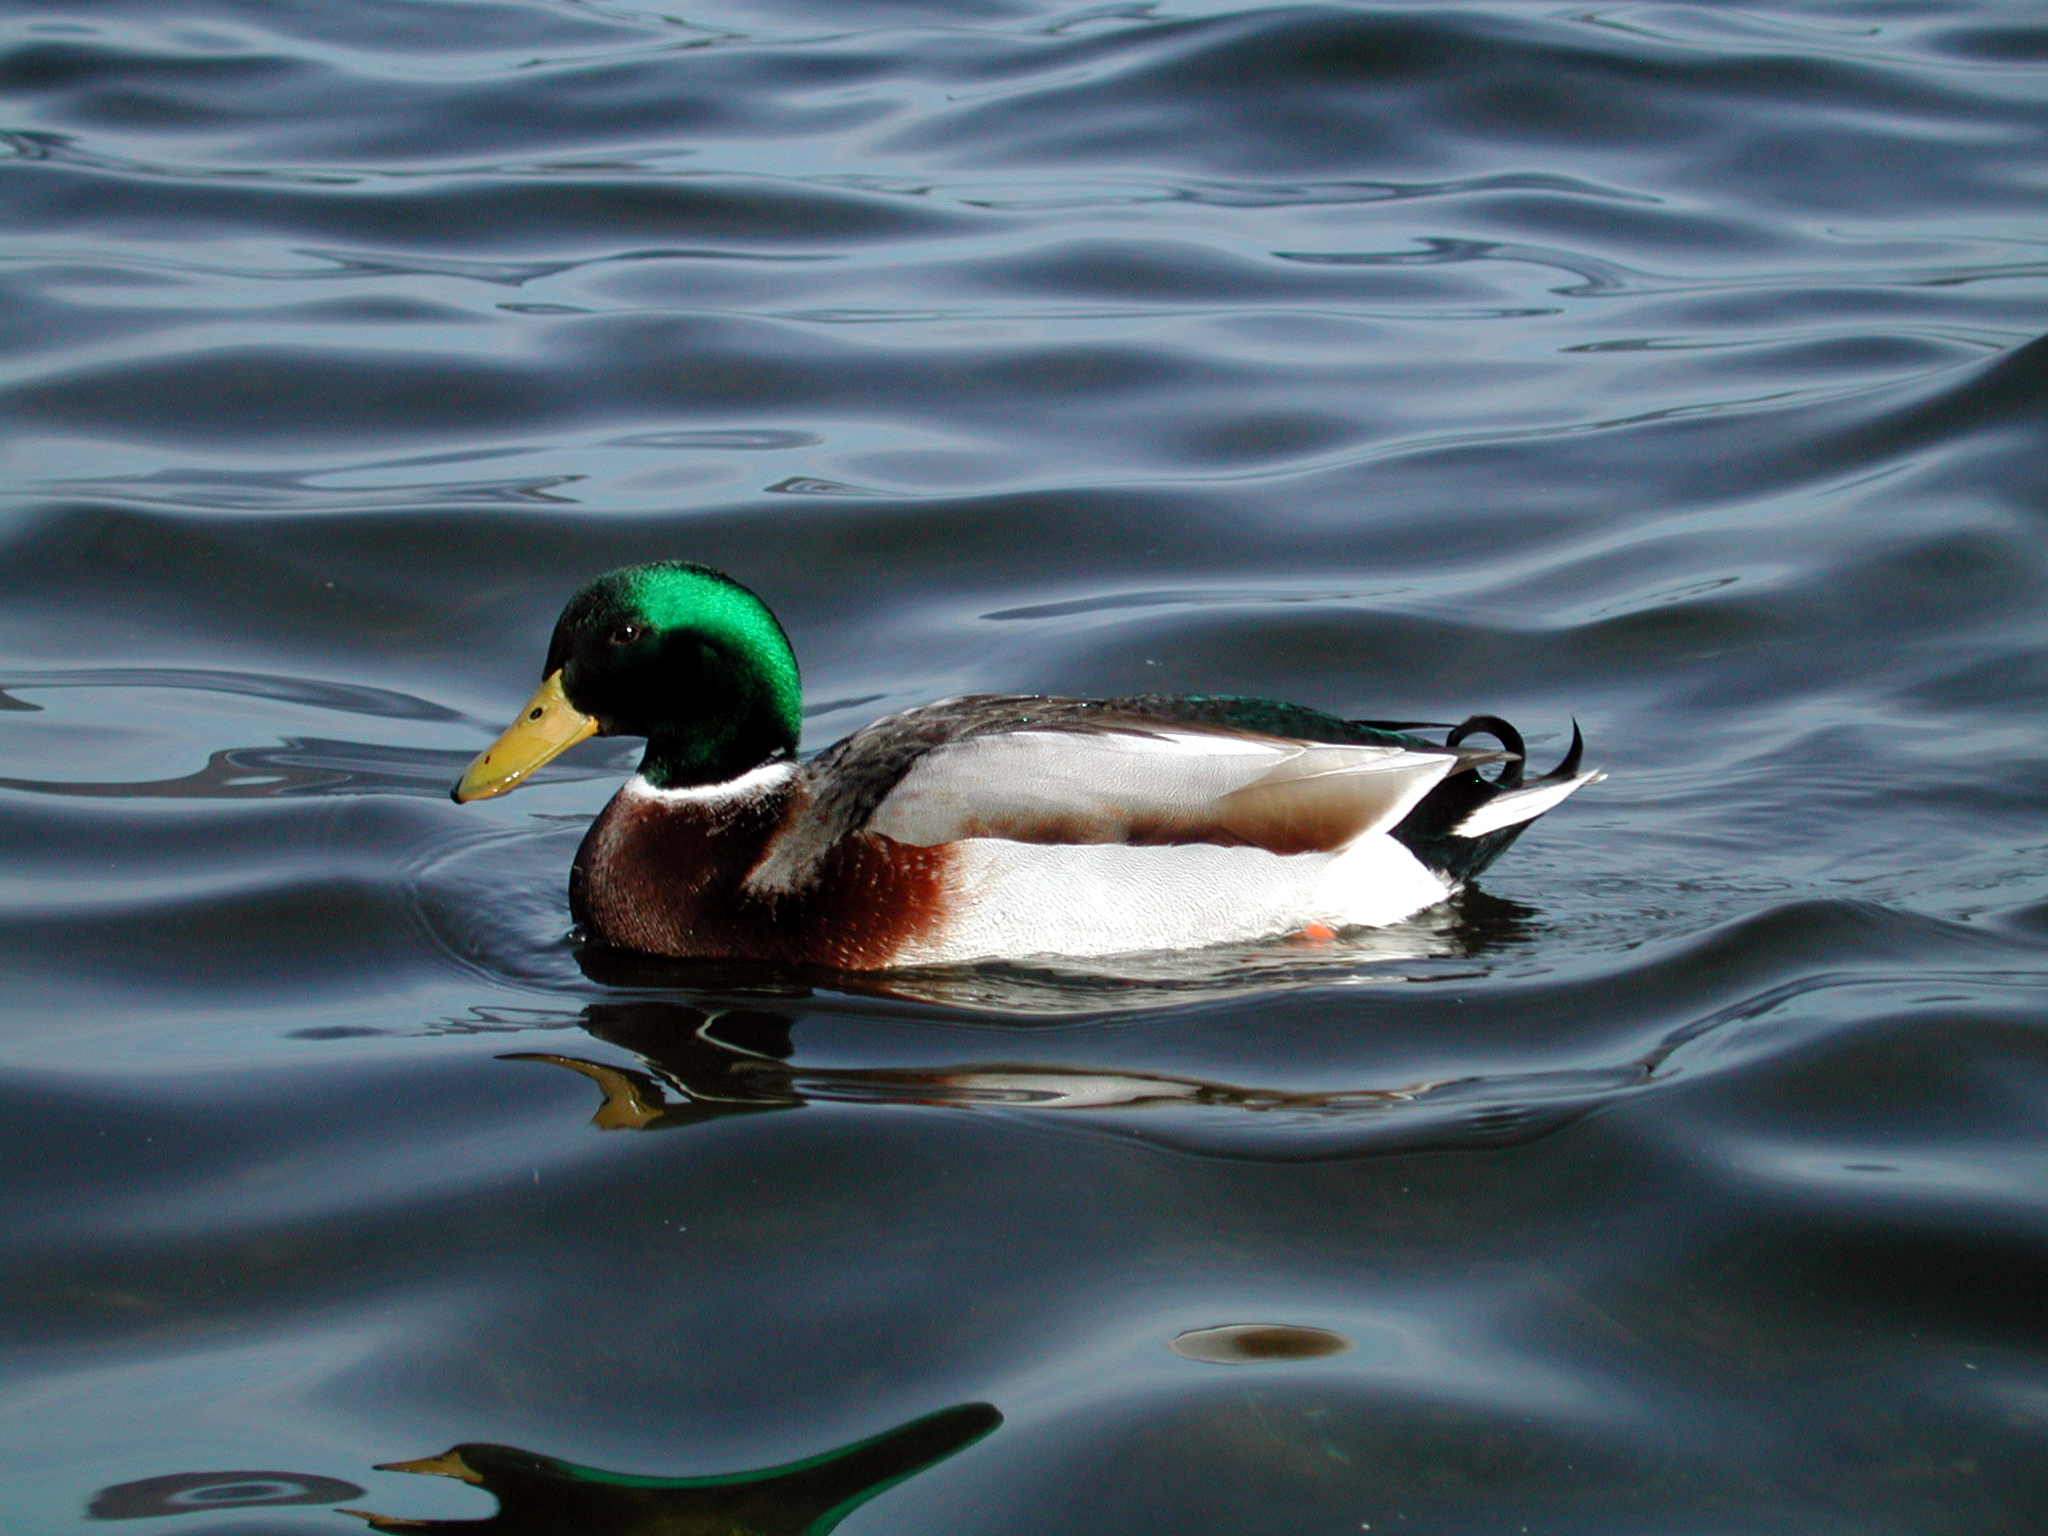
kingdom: Animalia
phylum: Chordata
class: Aves
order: Anseriformes
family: Anatidae
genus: Anas
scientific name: Anas platyrhynchos
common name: Mallard
